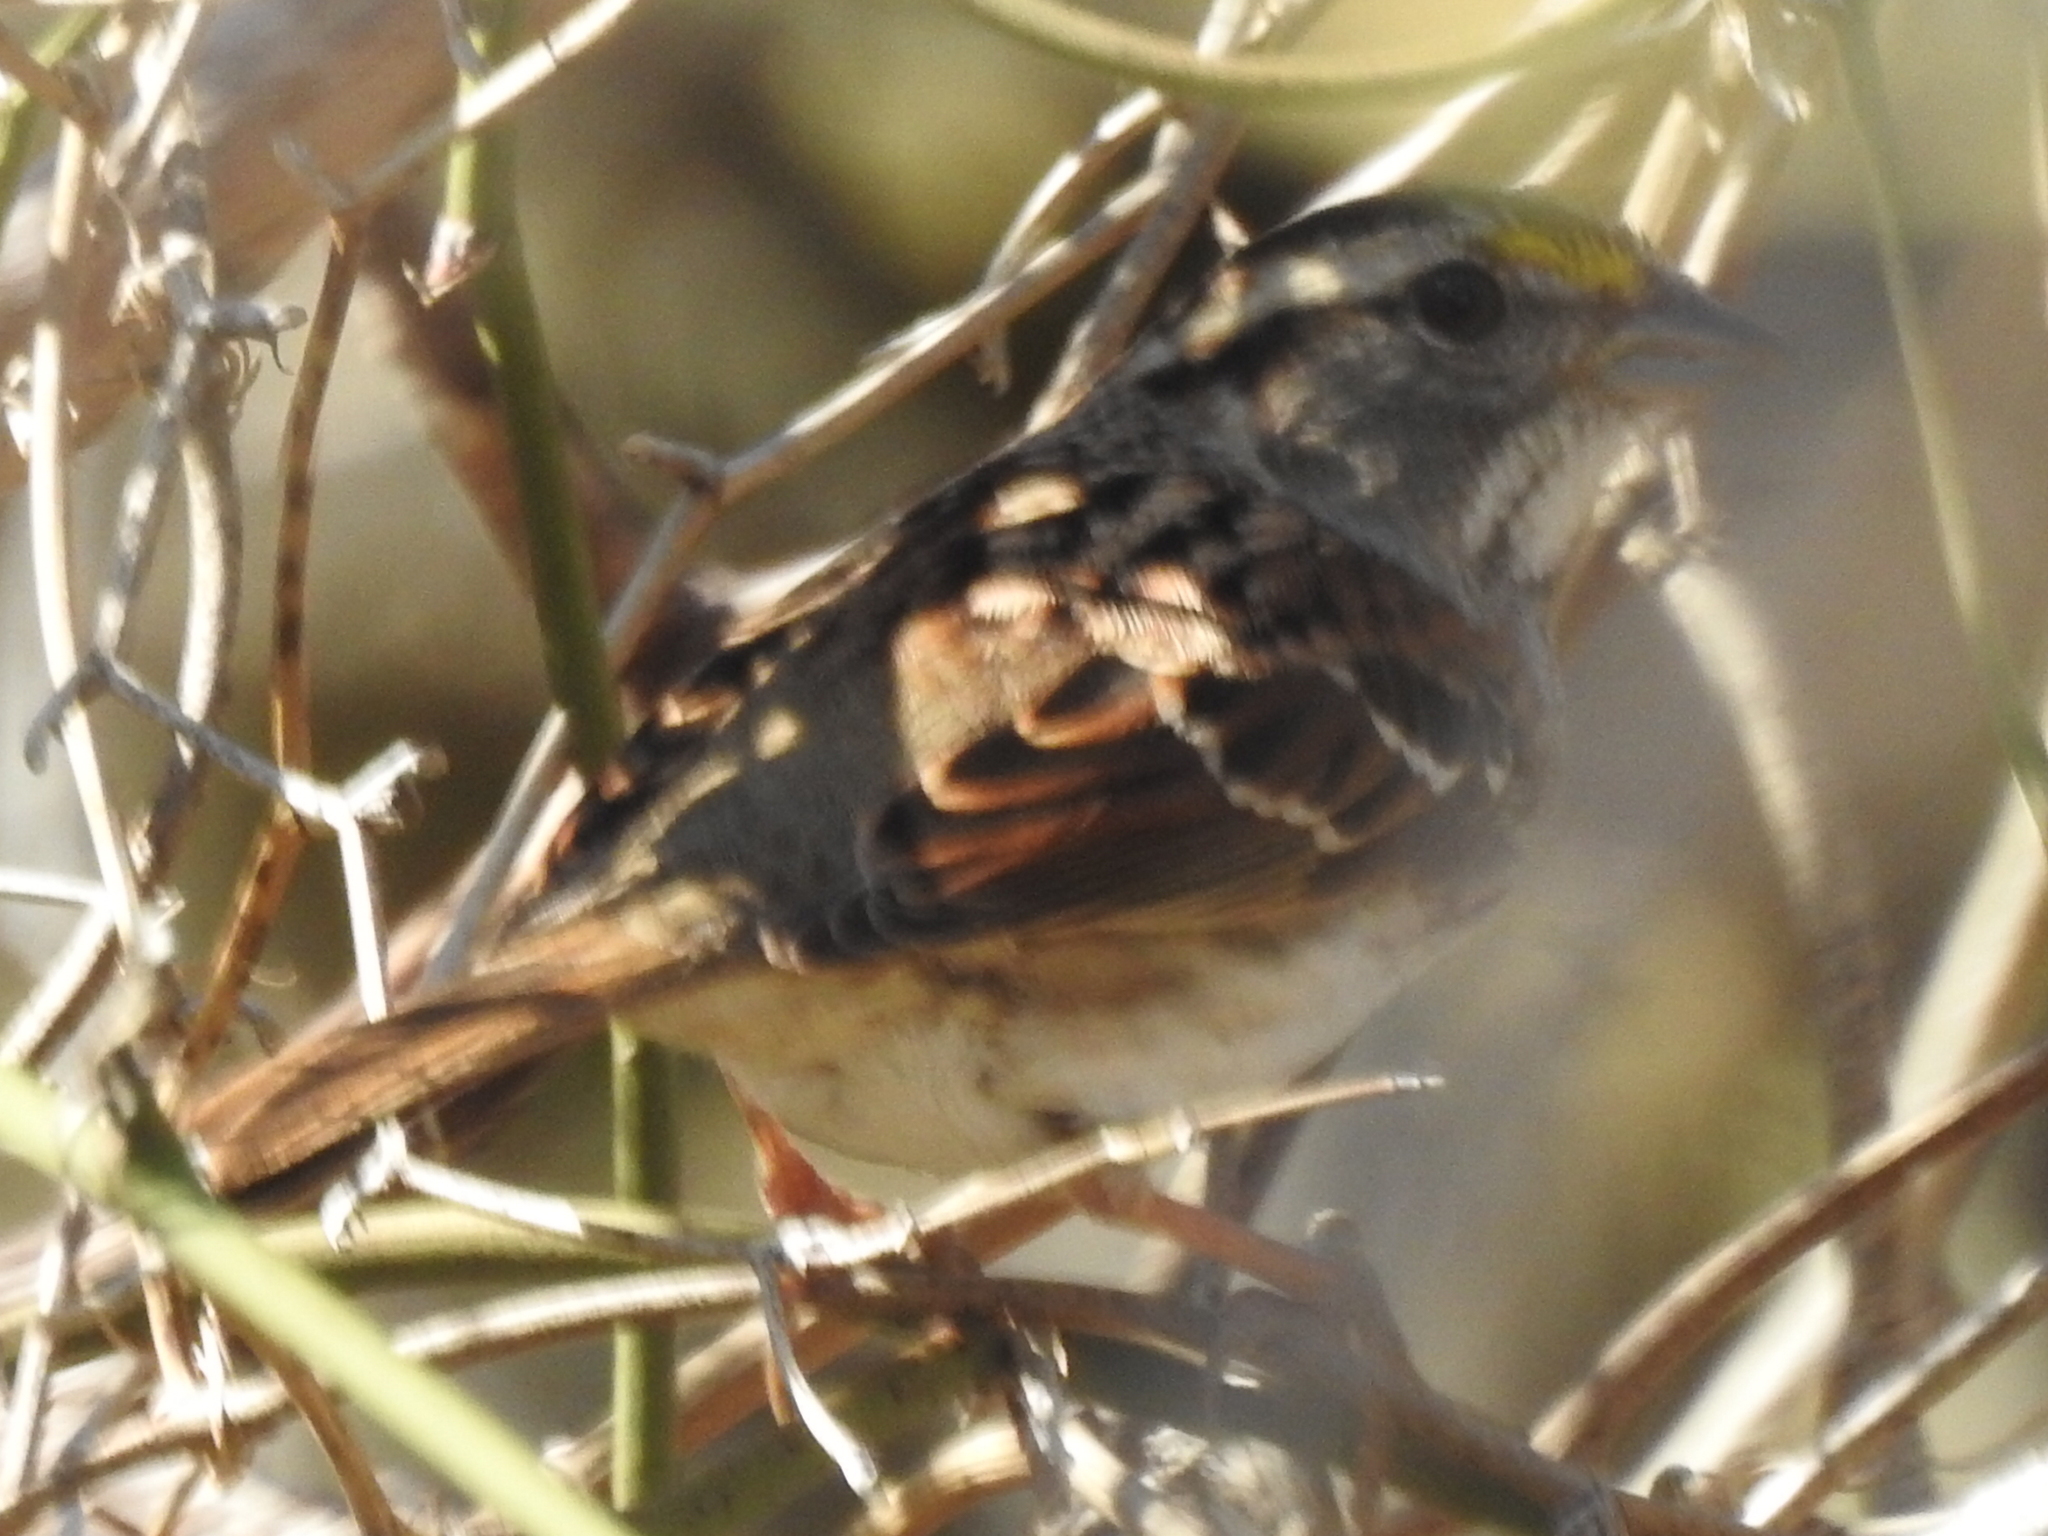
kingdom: Animalia
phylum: Chordata
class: Aves
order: Passeriformes
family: Passerellidae
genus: Zonotrichia
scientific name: Zonotrichia albicollis
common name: White-throated sparrow
